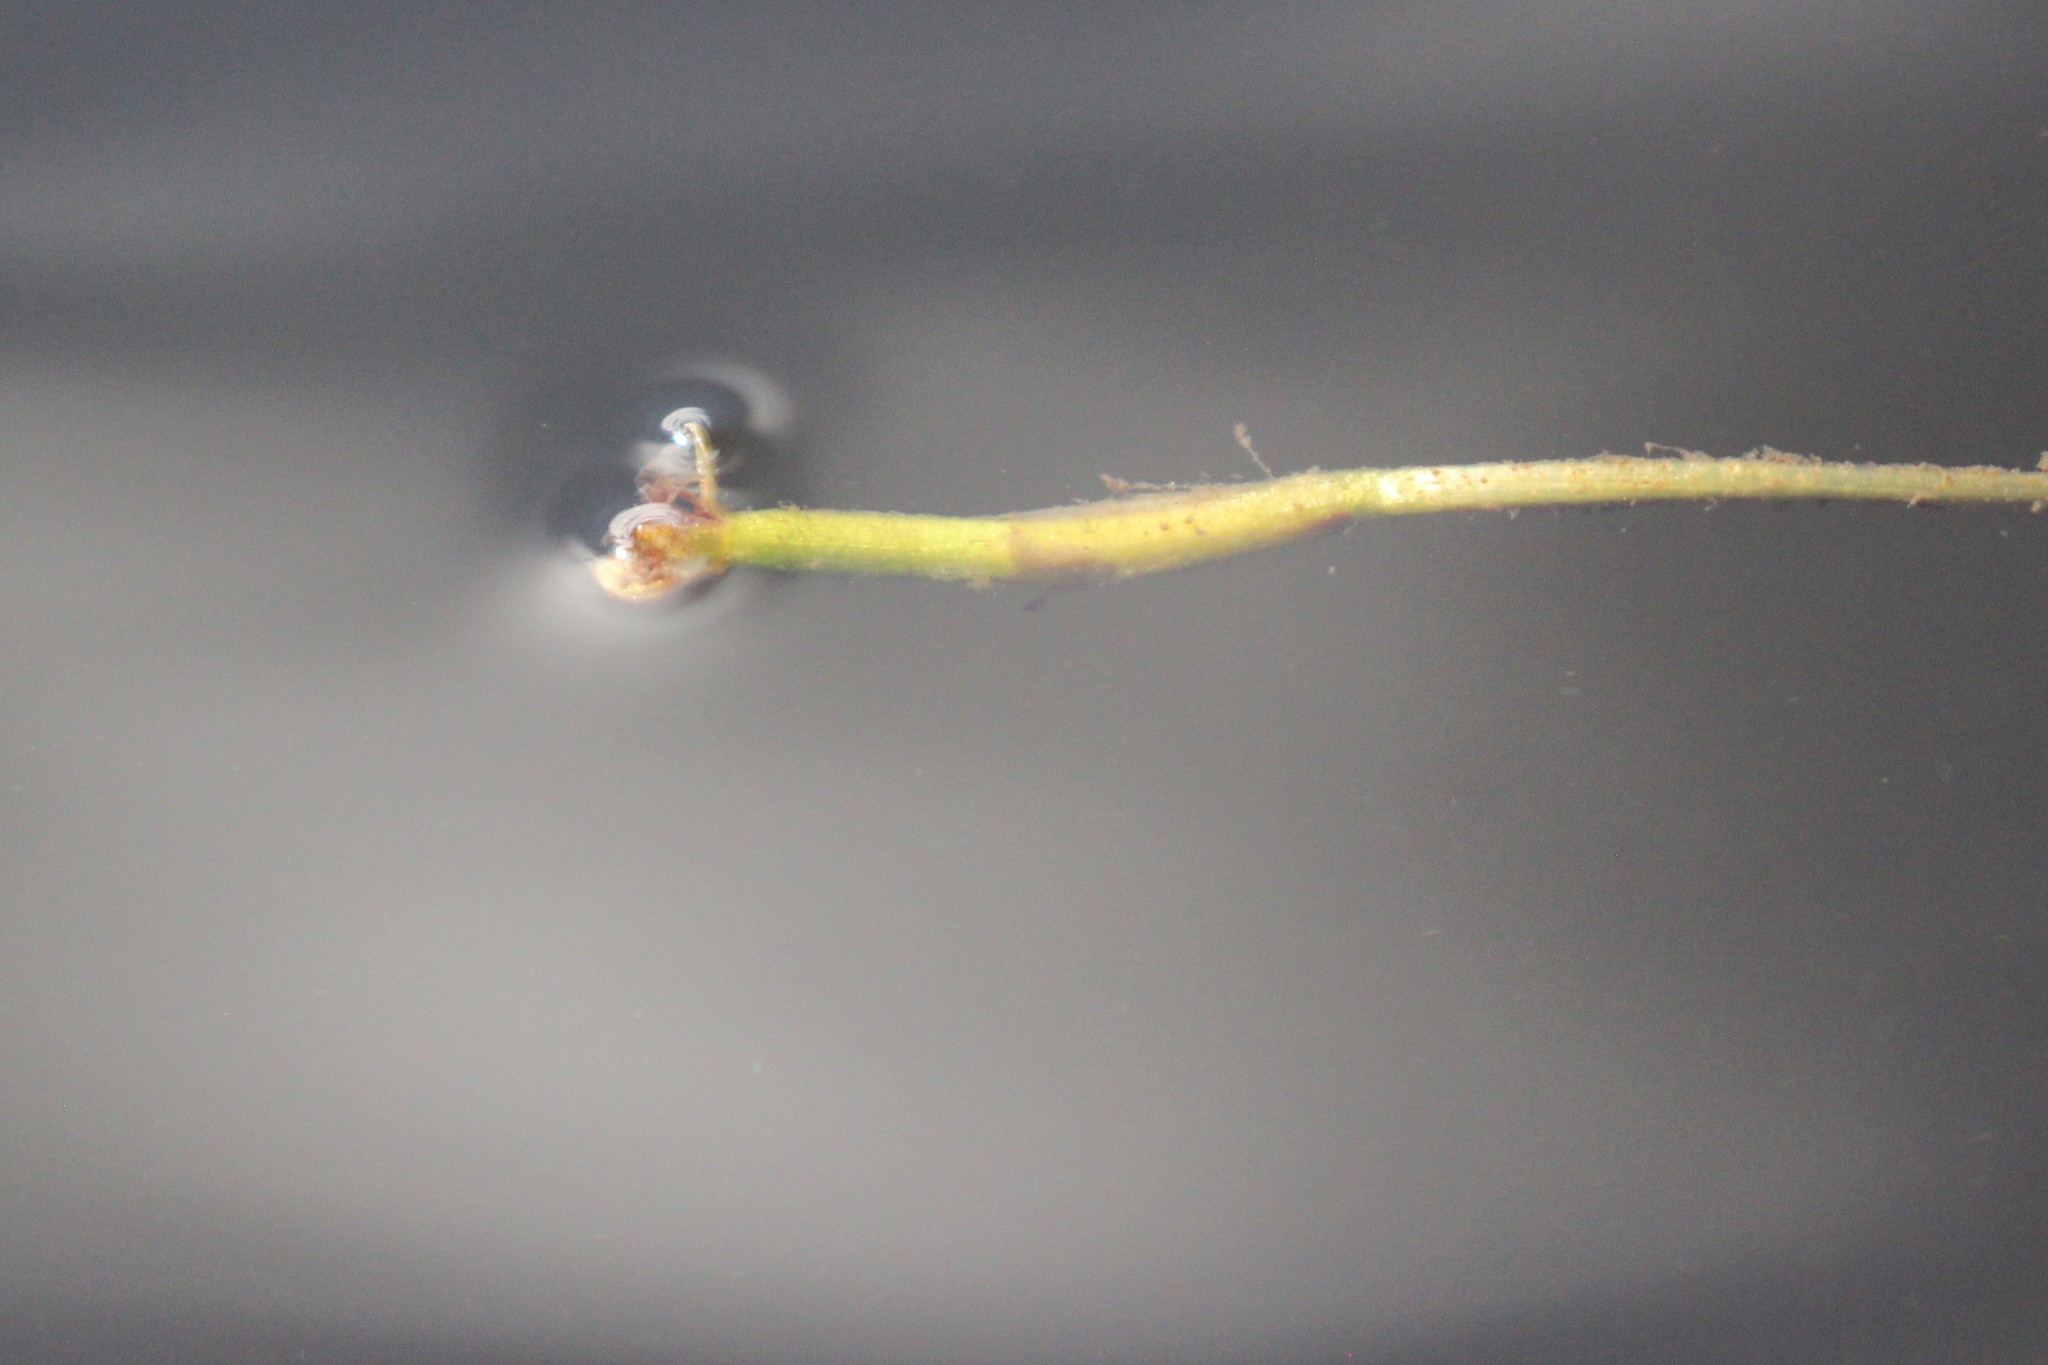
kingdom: Plantae
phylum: Tracheophyta
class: Liliopsida
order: Alismatales
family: Hydrocharitaceae
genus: Vallisneria
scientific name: Vallisneria americana
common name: American eelgrass
